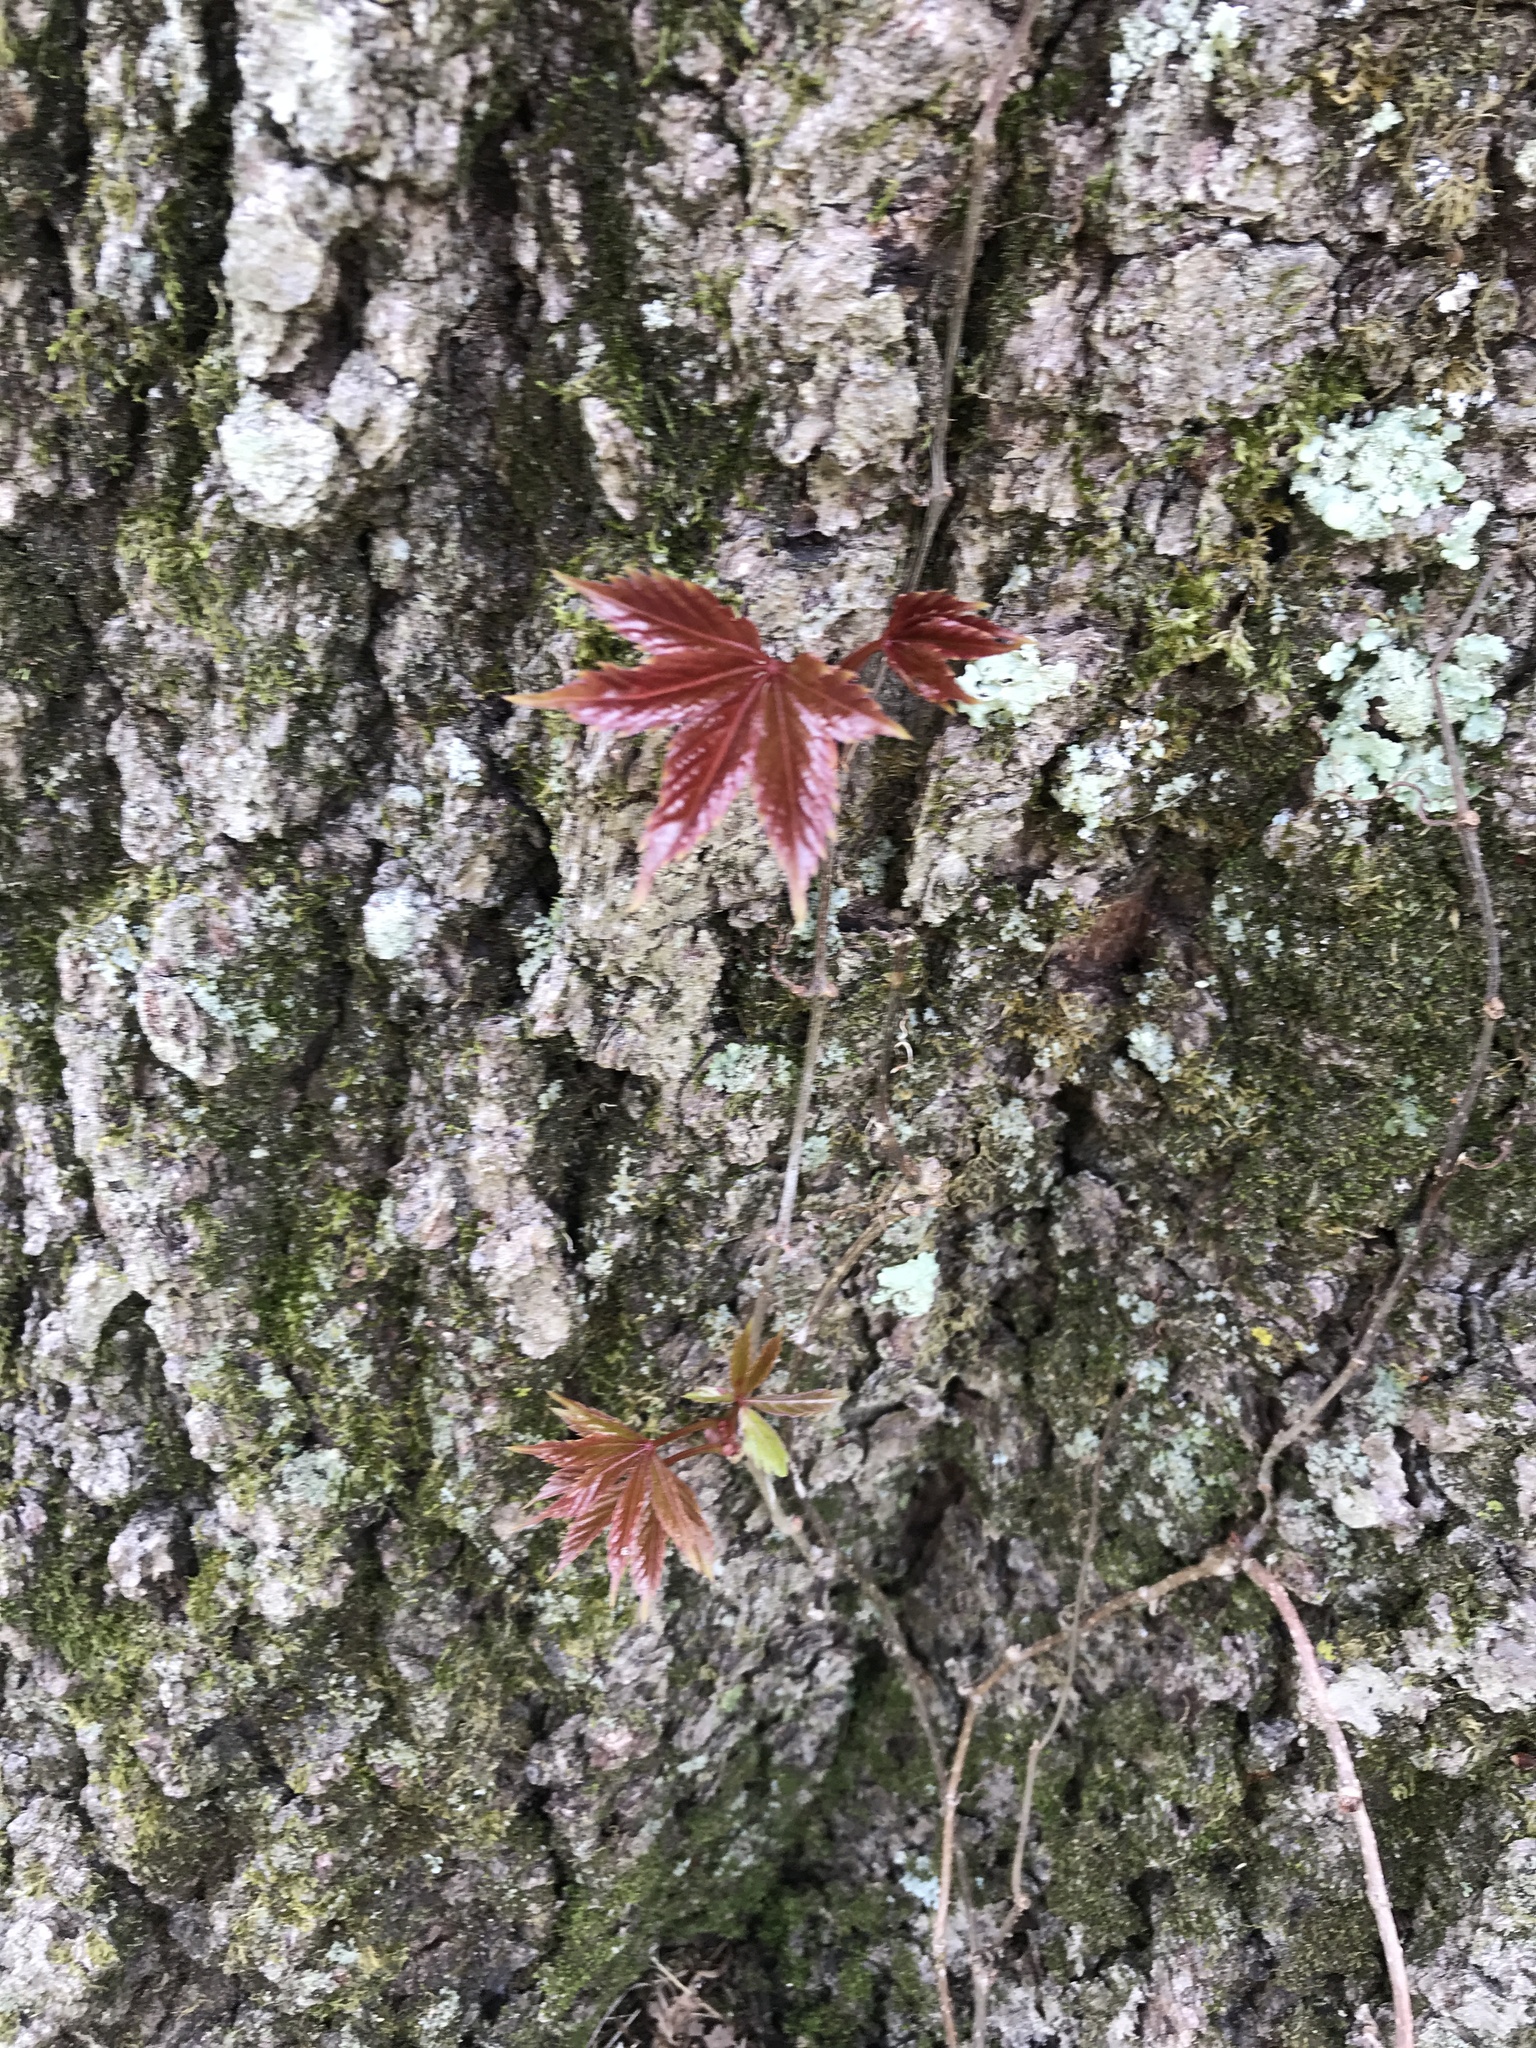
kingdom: Plantae
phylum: Tracheophyta
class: Magnoliopsida
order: Vitales
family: Vitaceae
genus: Parthenocissus
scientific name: Parthenocissus quinquefolia
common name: Virginia-creeper
